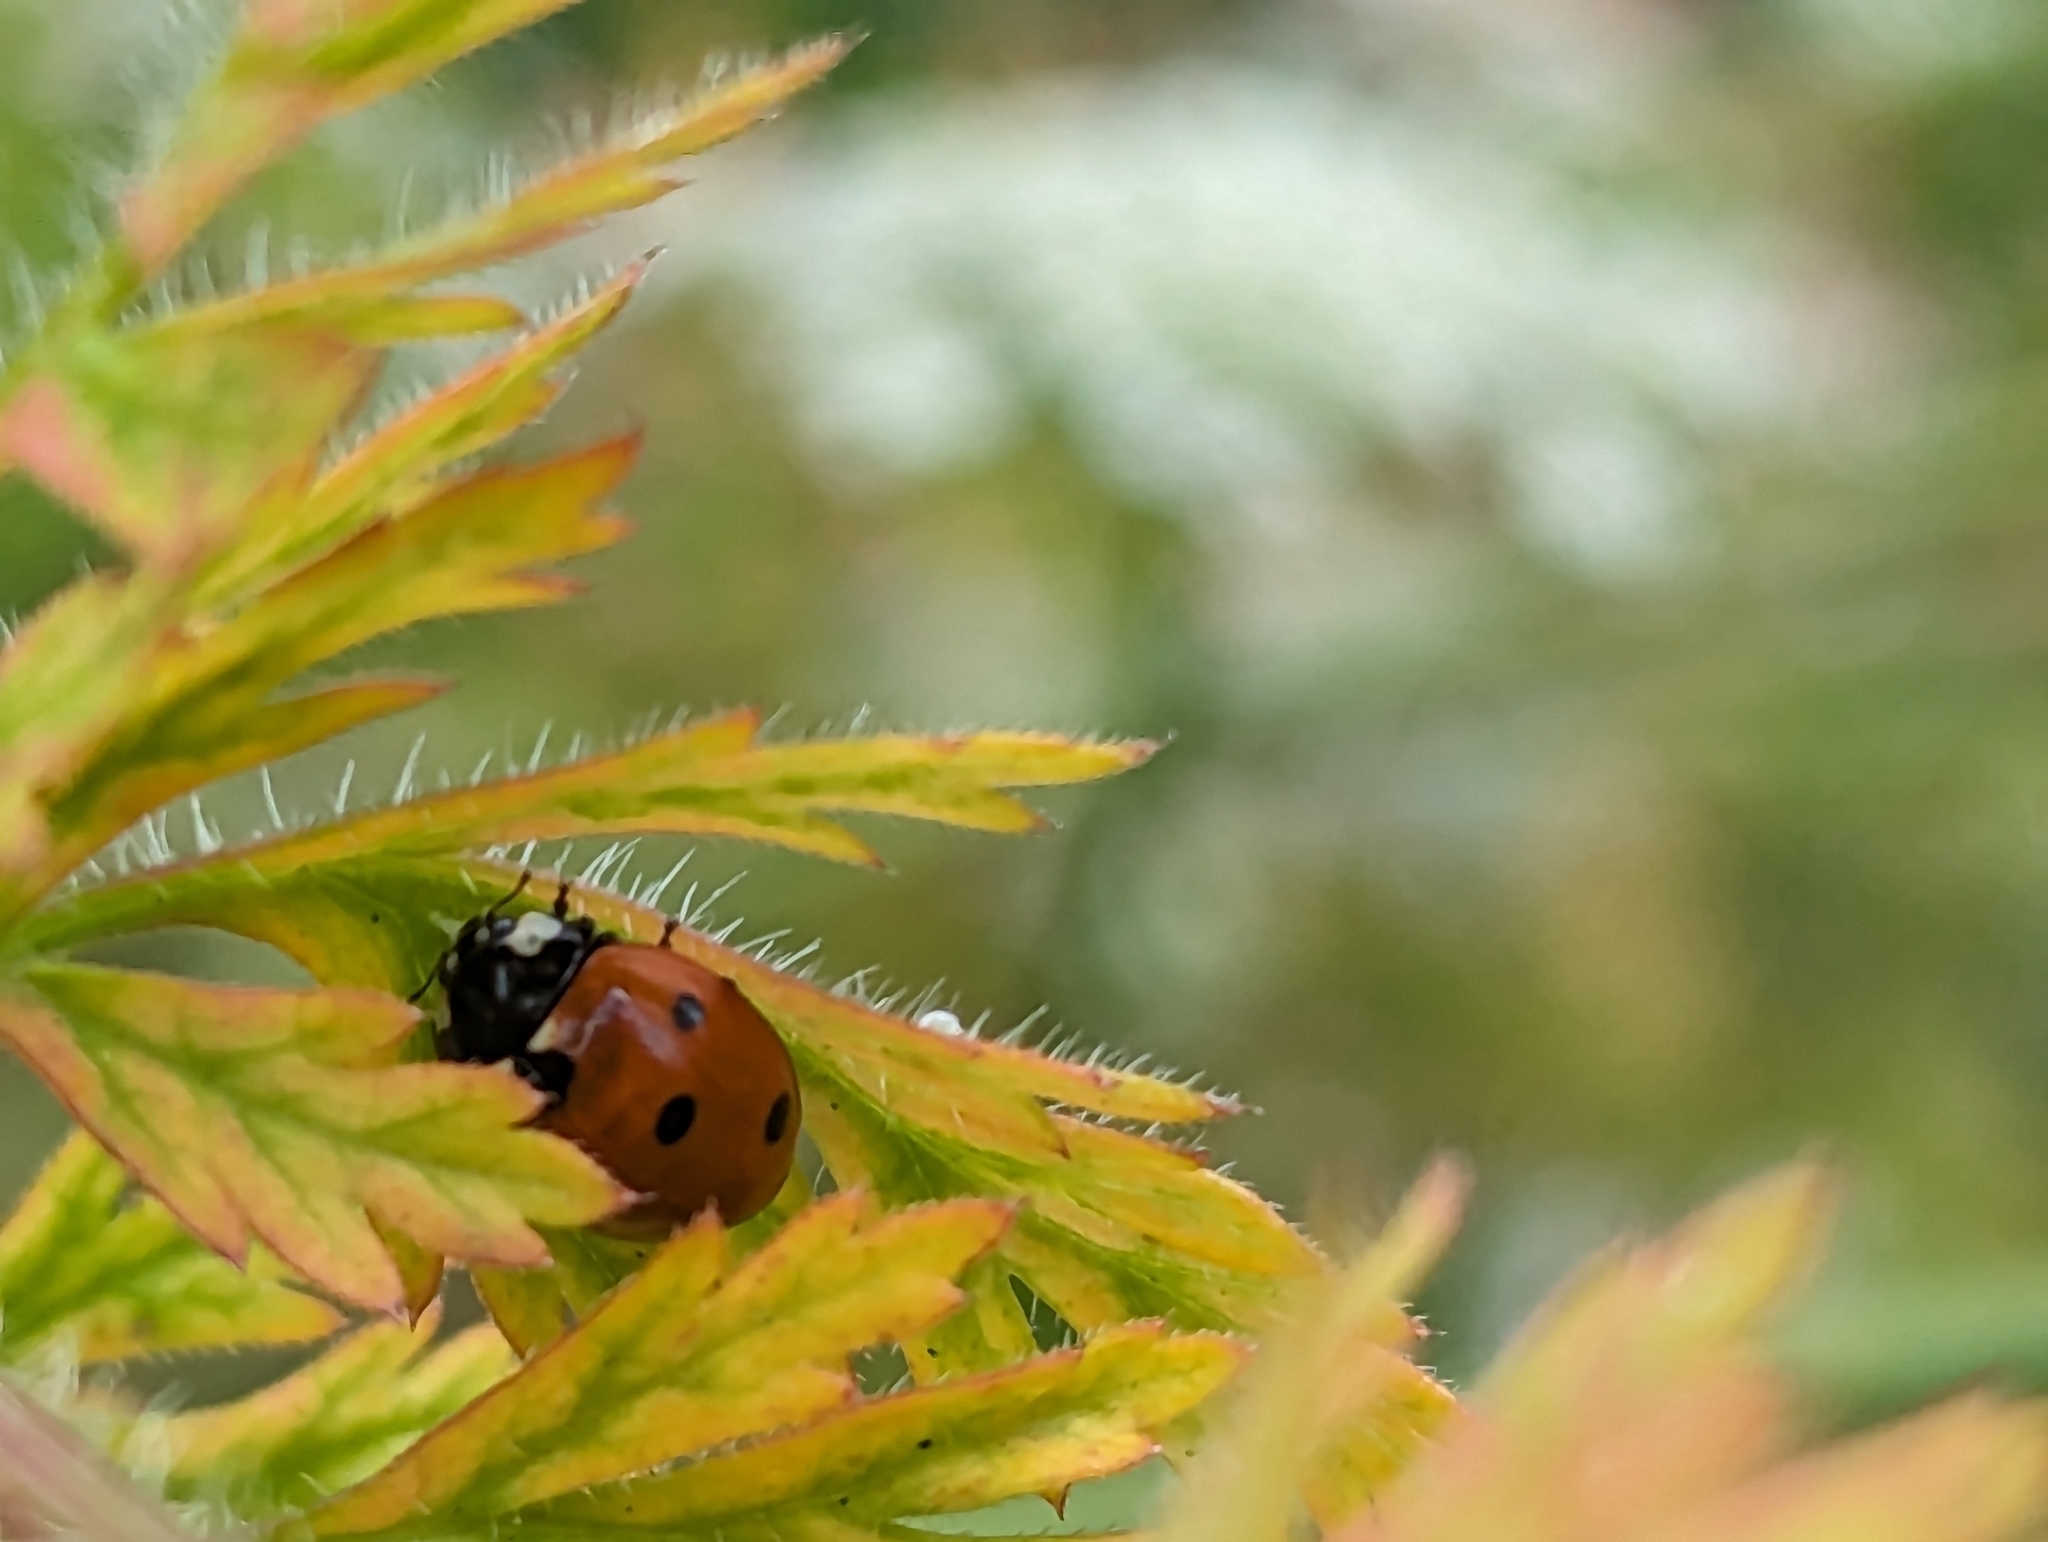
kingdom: Animalia
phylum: Arthropoda
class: Insecta
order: Coleoptera
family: Coccinellidae
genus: Coccinella
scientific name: Coccinella septempunctata
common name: Sevenspotted lady beetle
